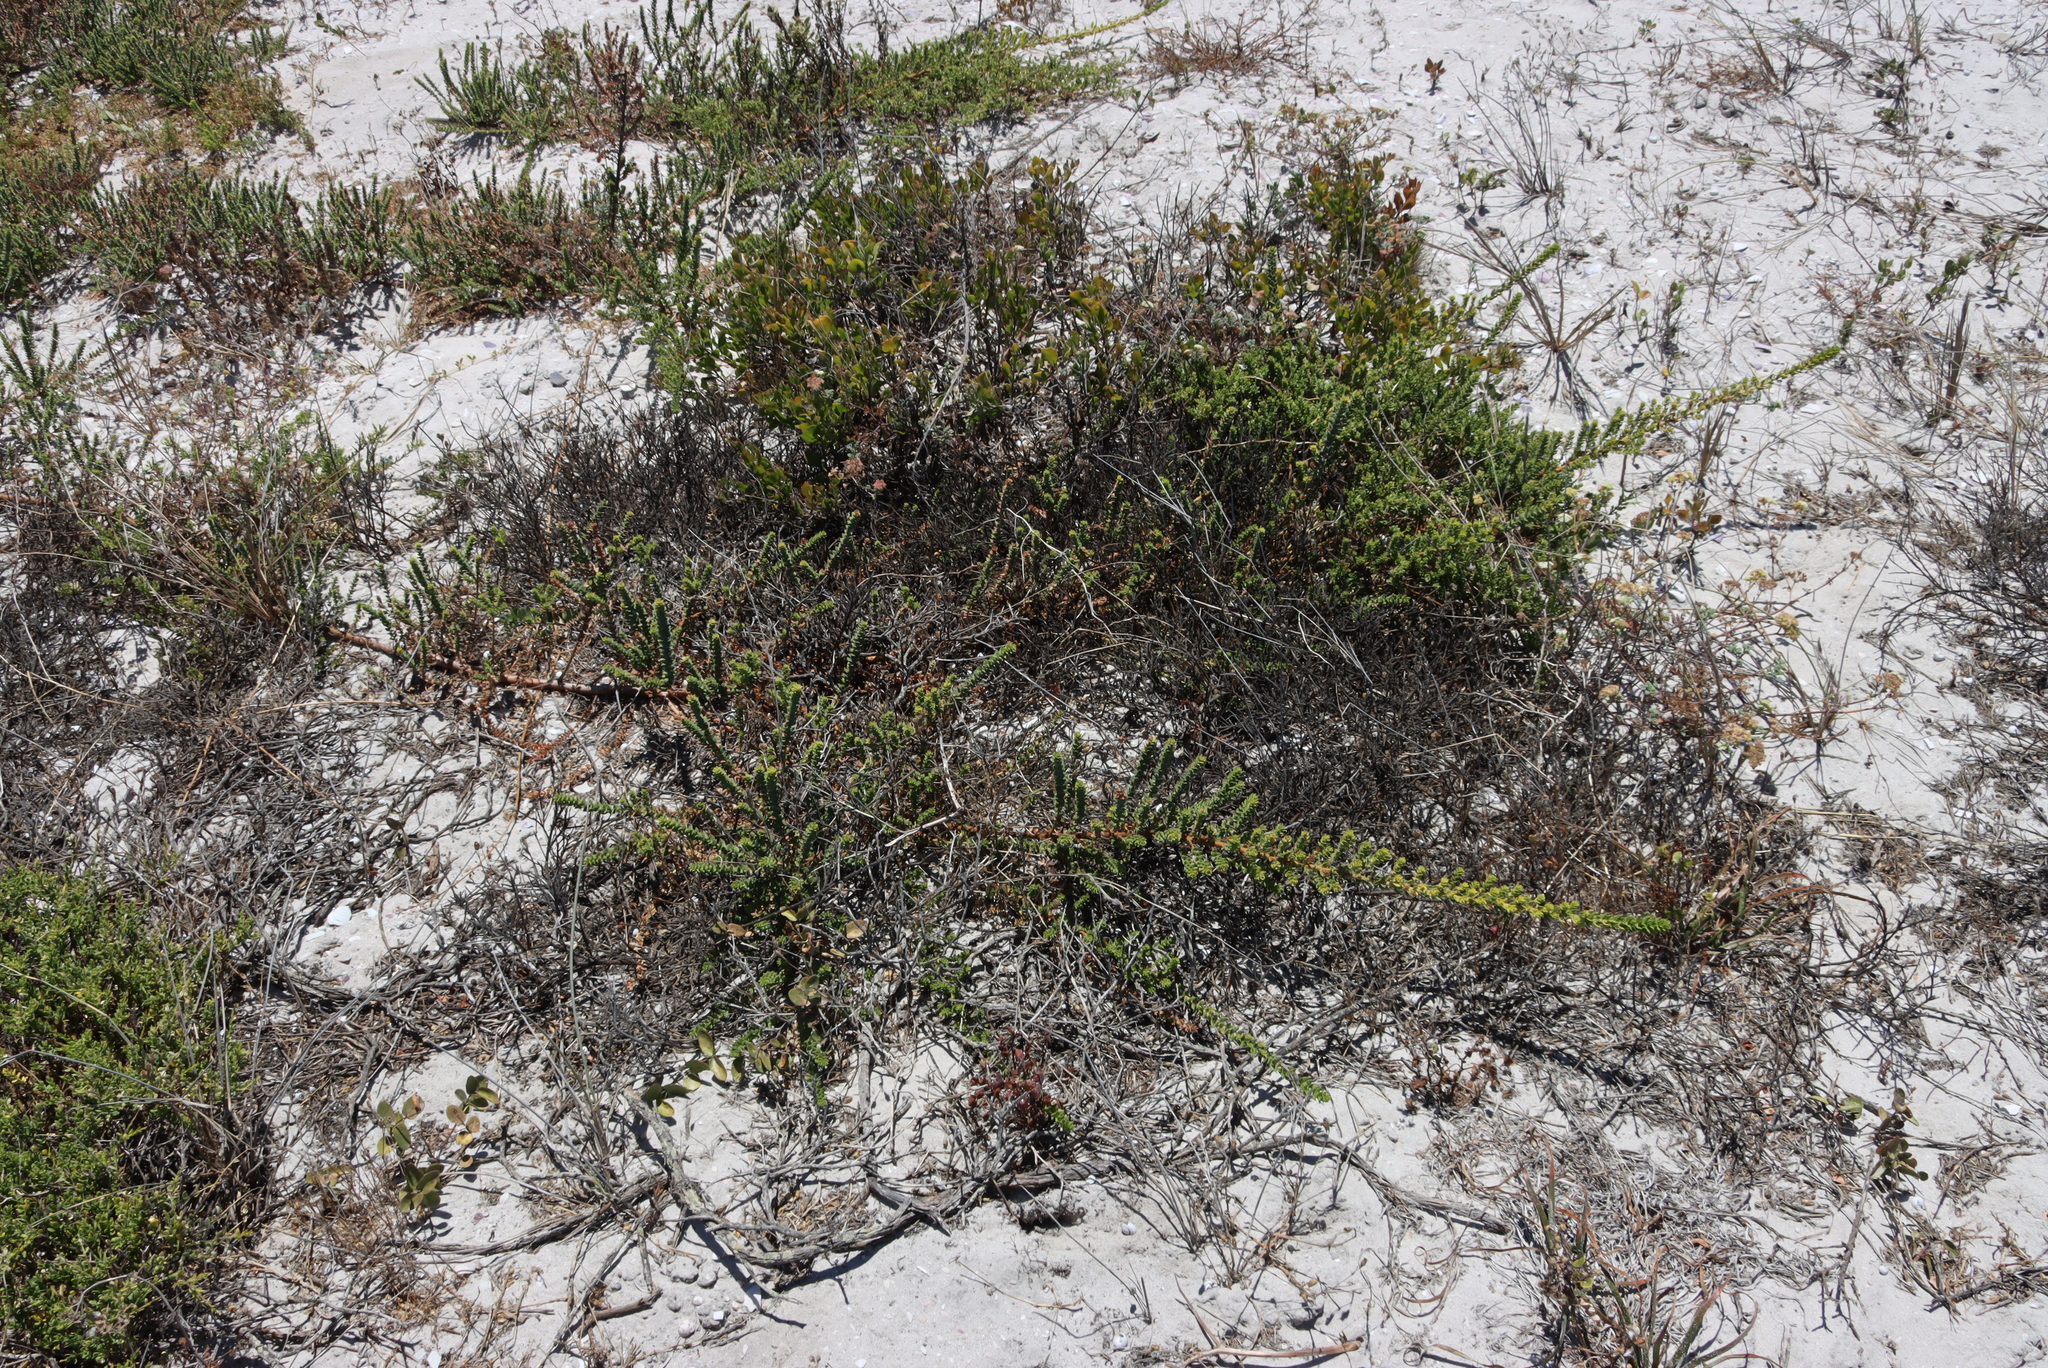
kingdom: Plantae
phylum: Tracheophyta
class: Magnoliopsida
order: Fagales
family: Myricaceae
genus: Morella
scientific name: Morella cordifolia
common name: Waxberry
